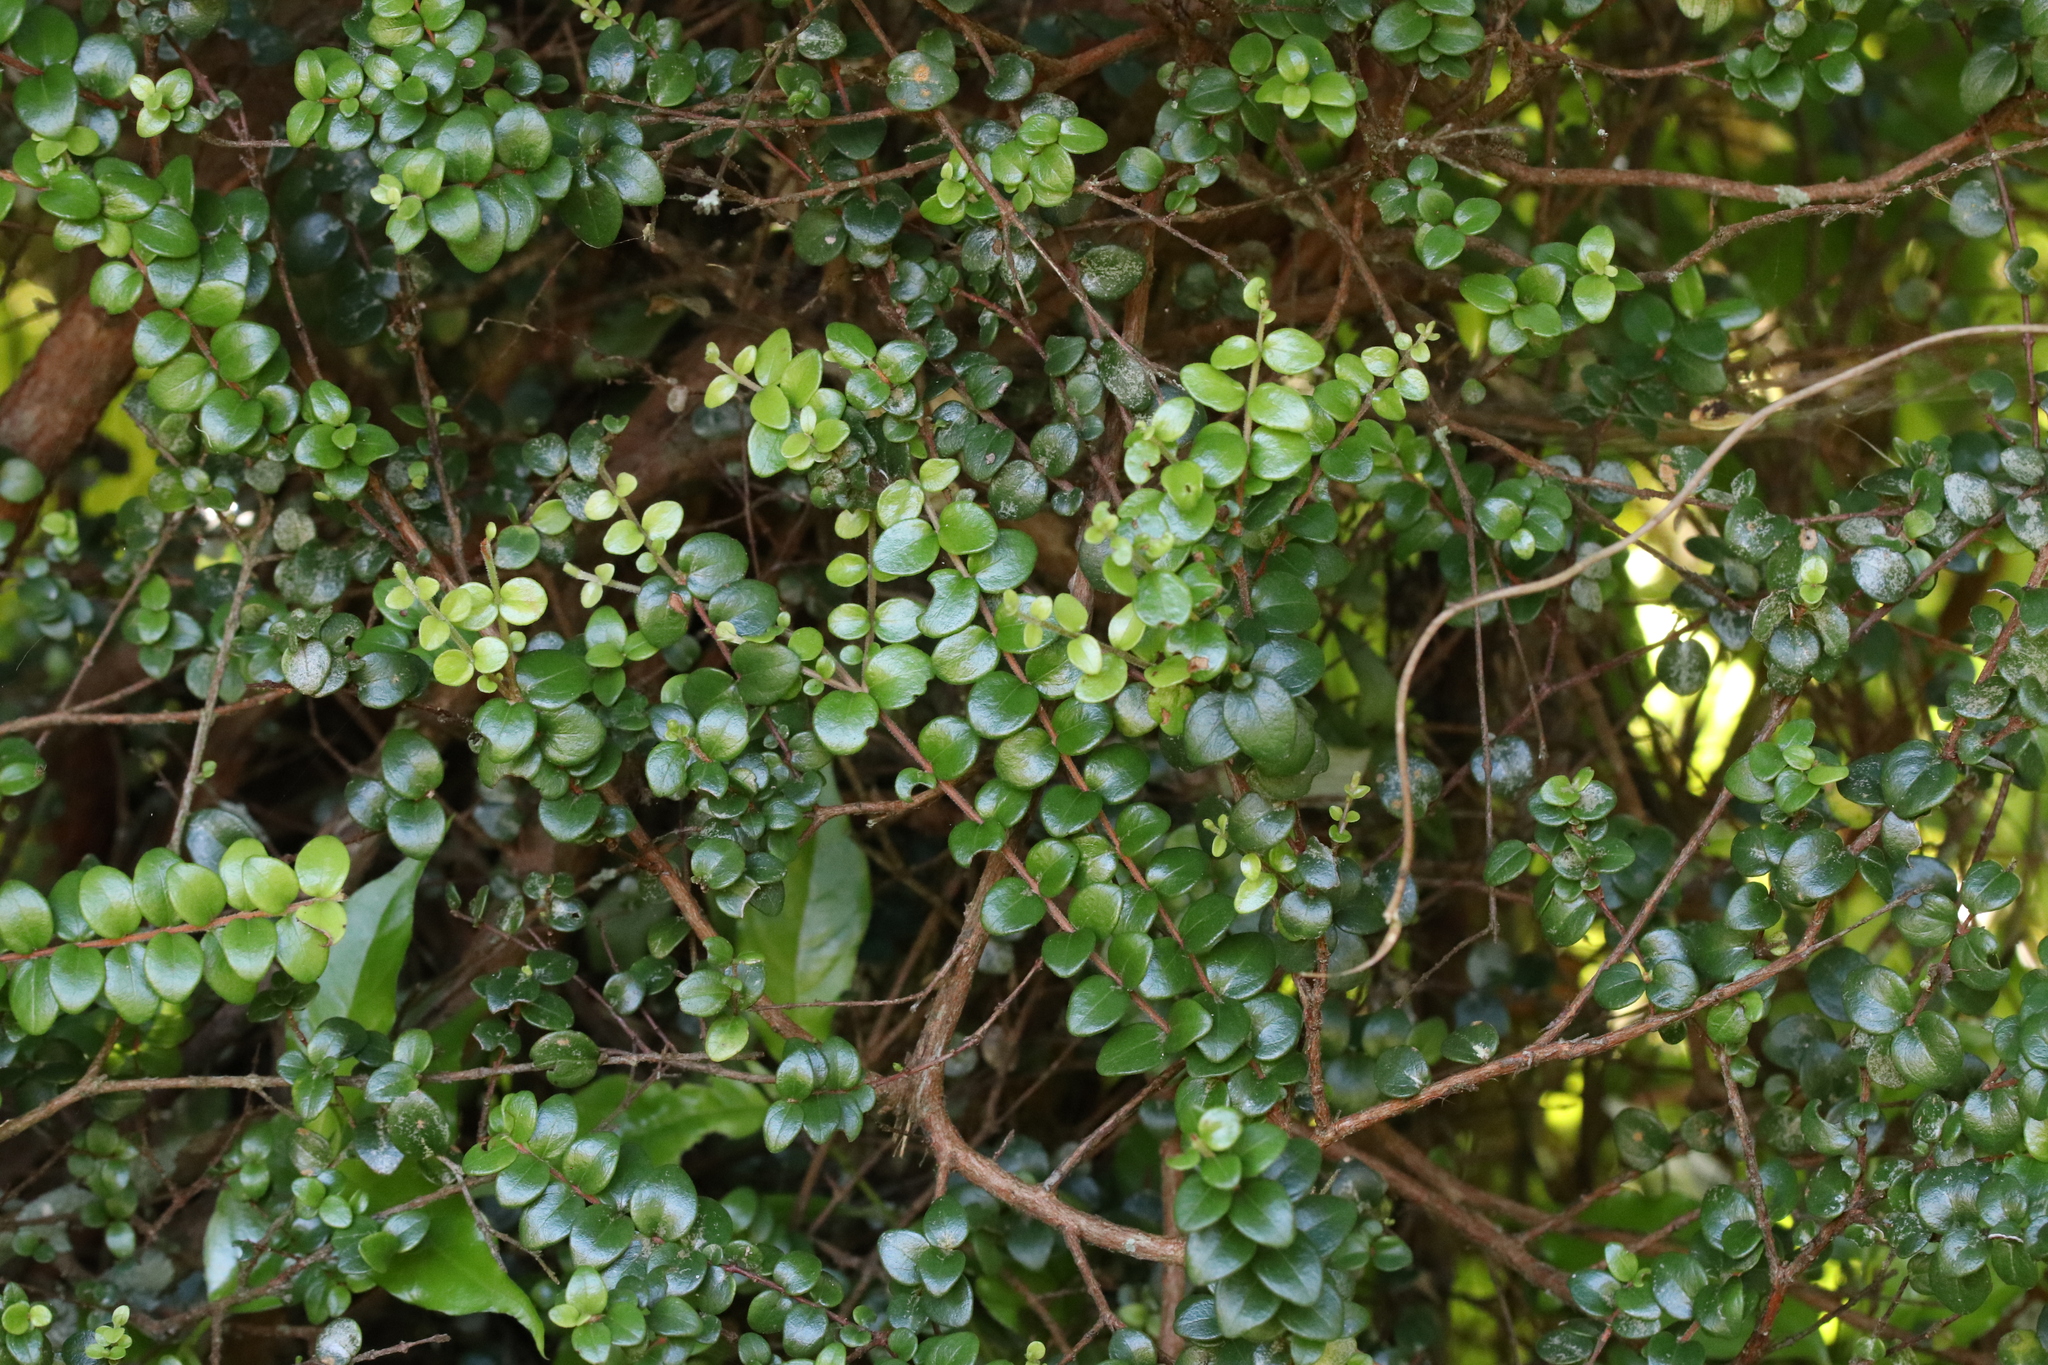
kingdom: Plantae
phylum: Tracheophyta
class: Magnoliopsida
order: Myrtales
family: Myrtaceae
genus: Metrosideros
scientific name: Metrosideros perforata
